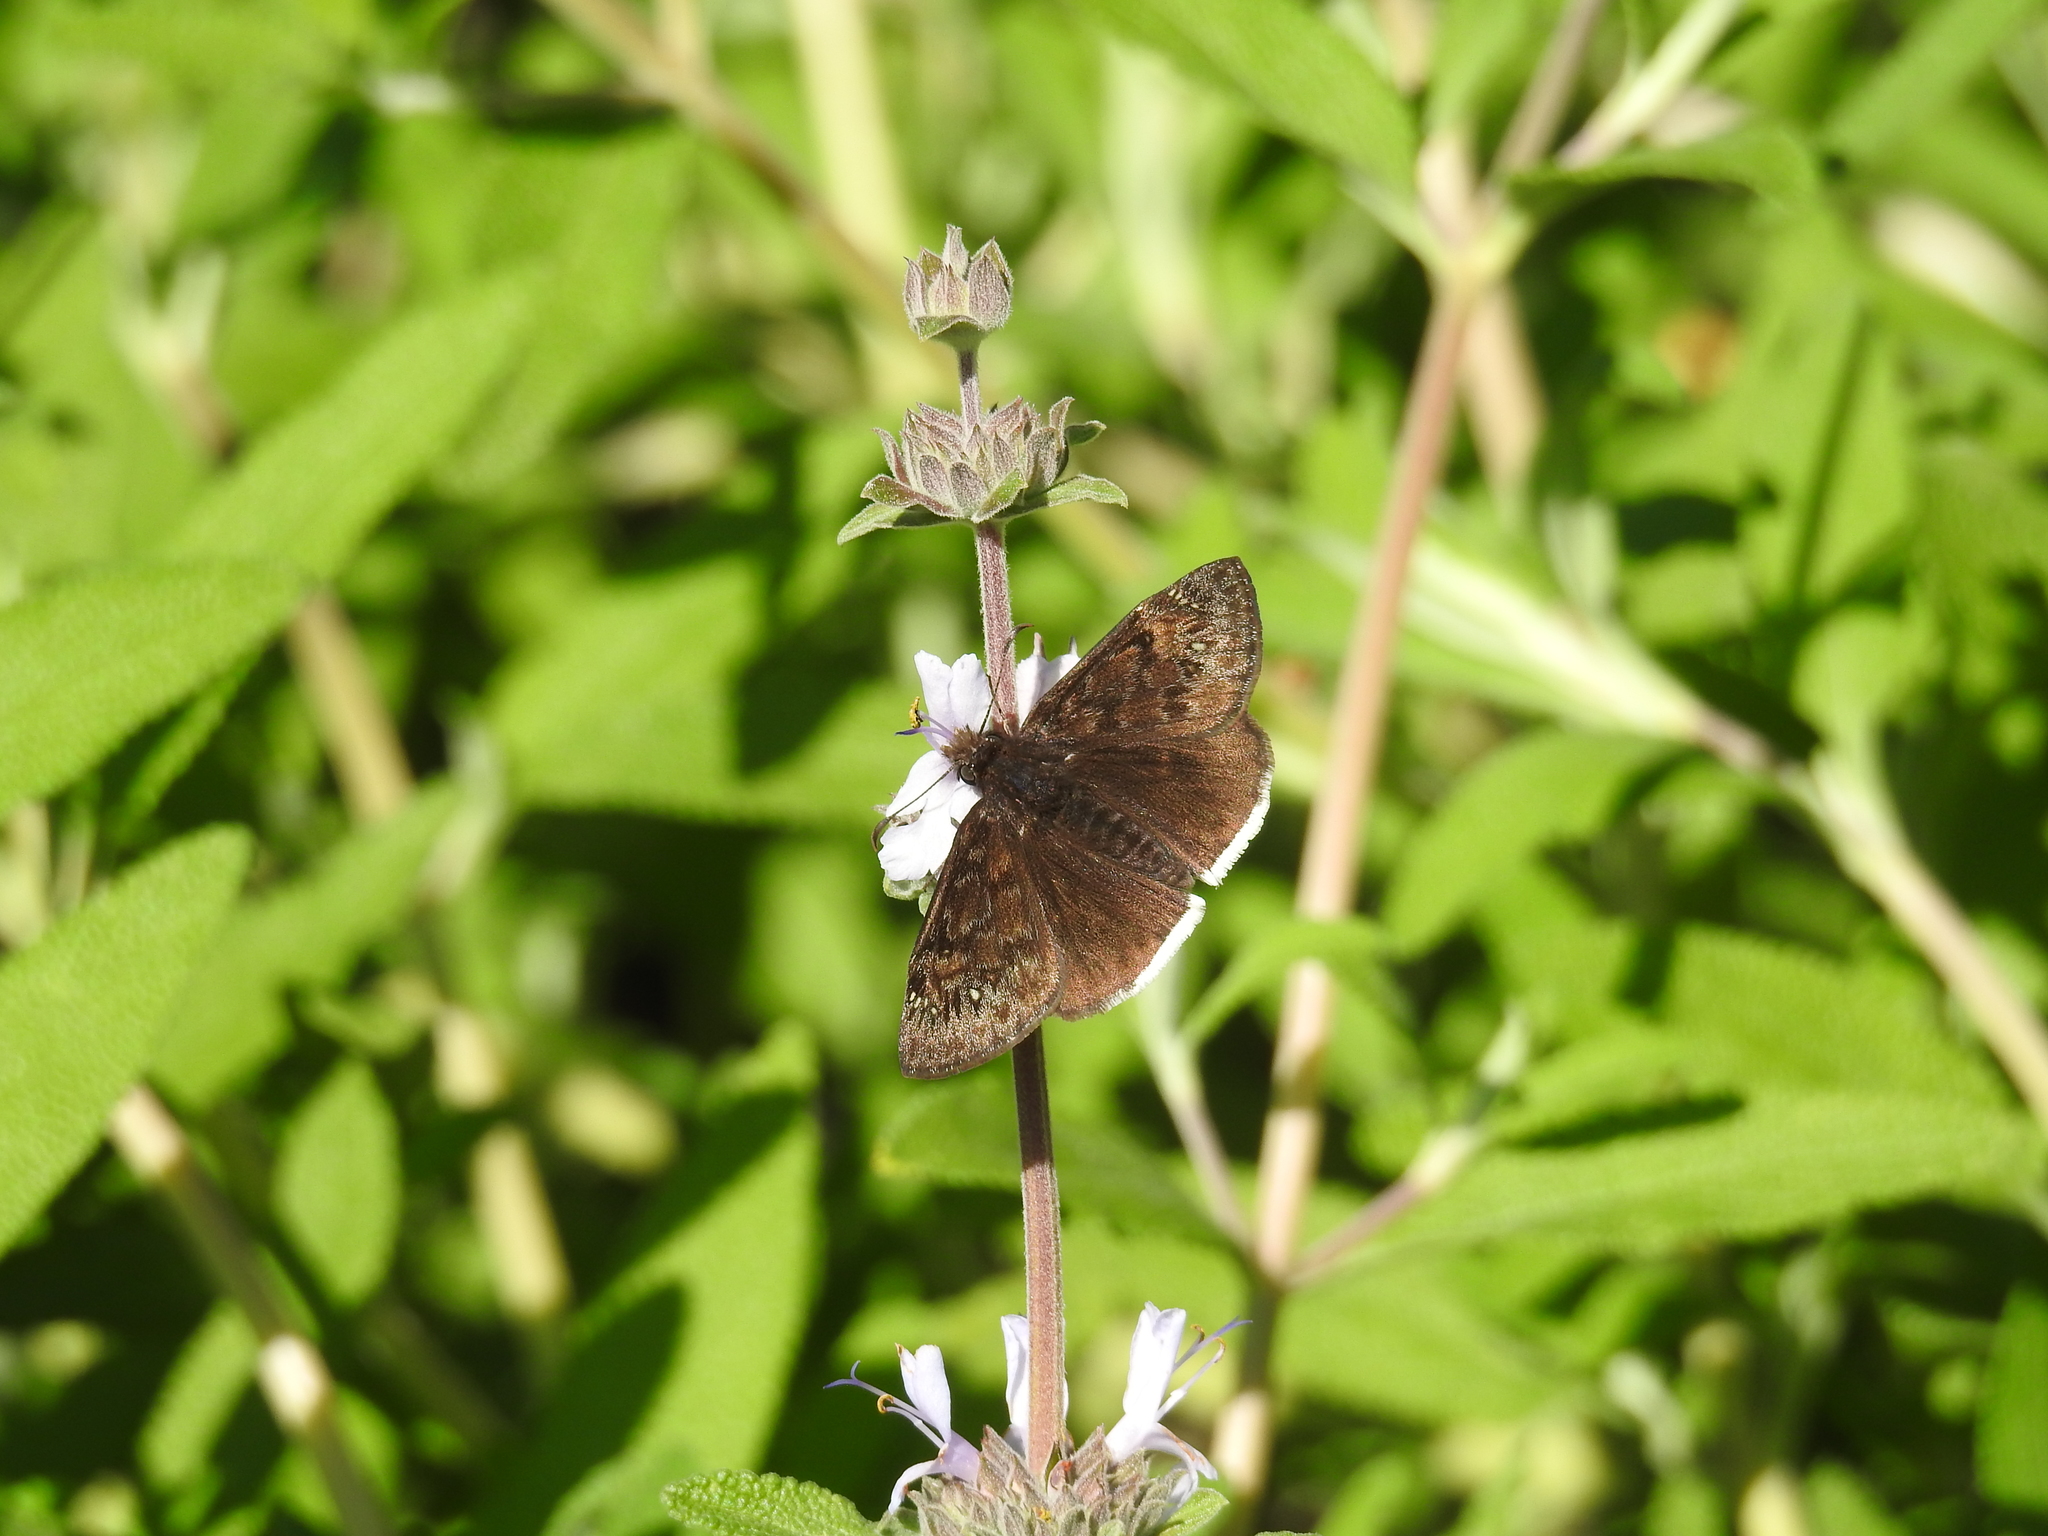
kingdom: Animalia
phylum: Arthropoda
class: Insecta
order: Lepidoptera
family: Hesperiidae
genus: Erynnis
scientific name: Erynnis
